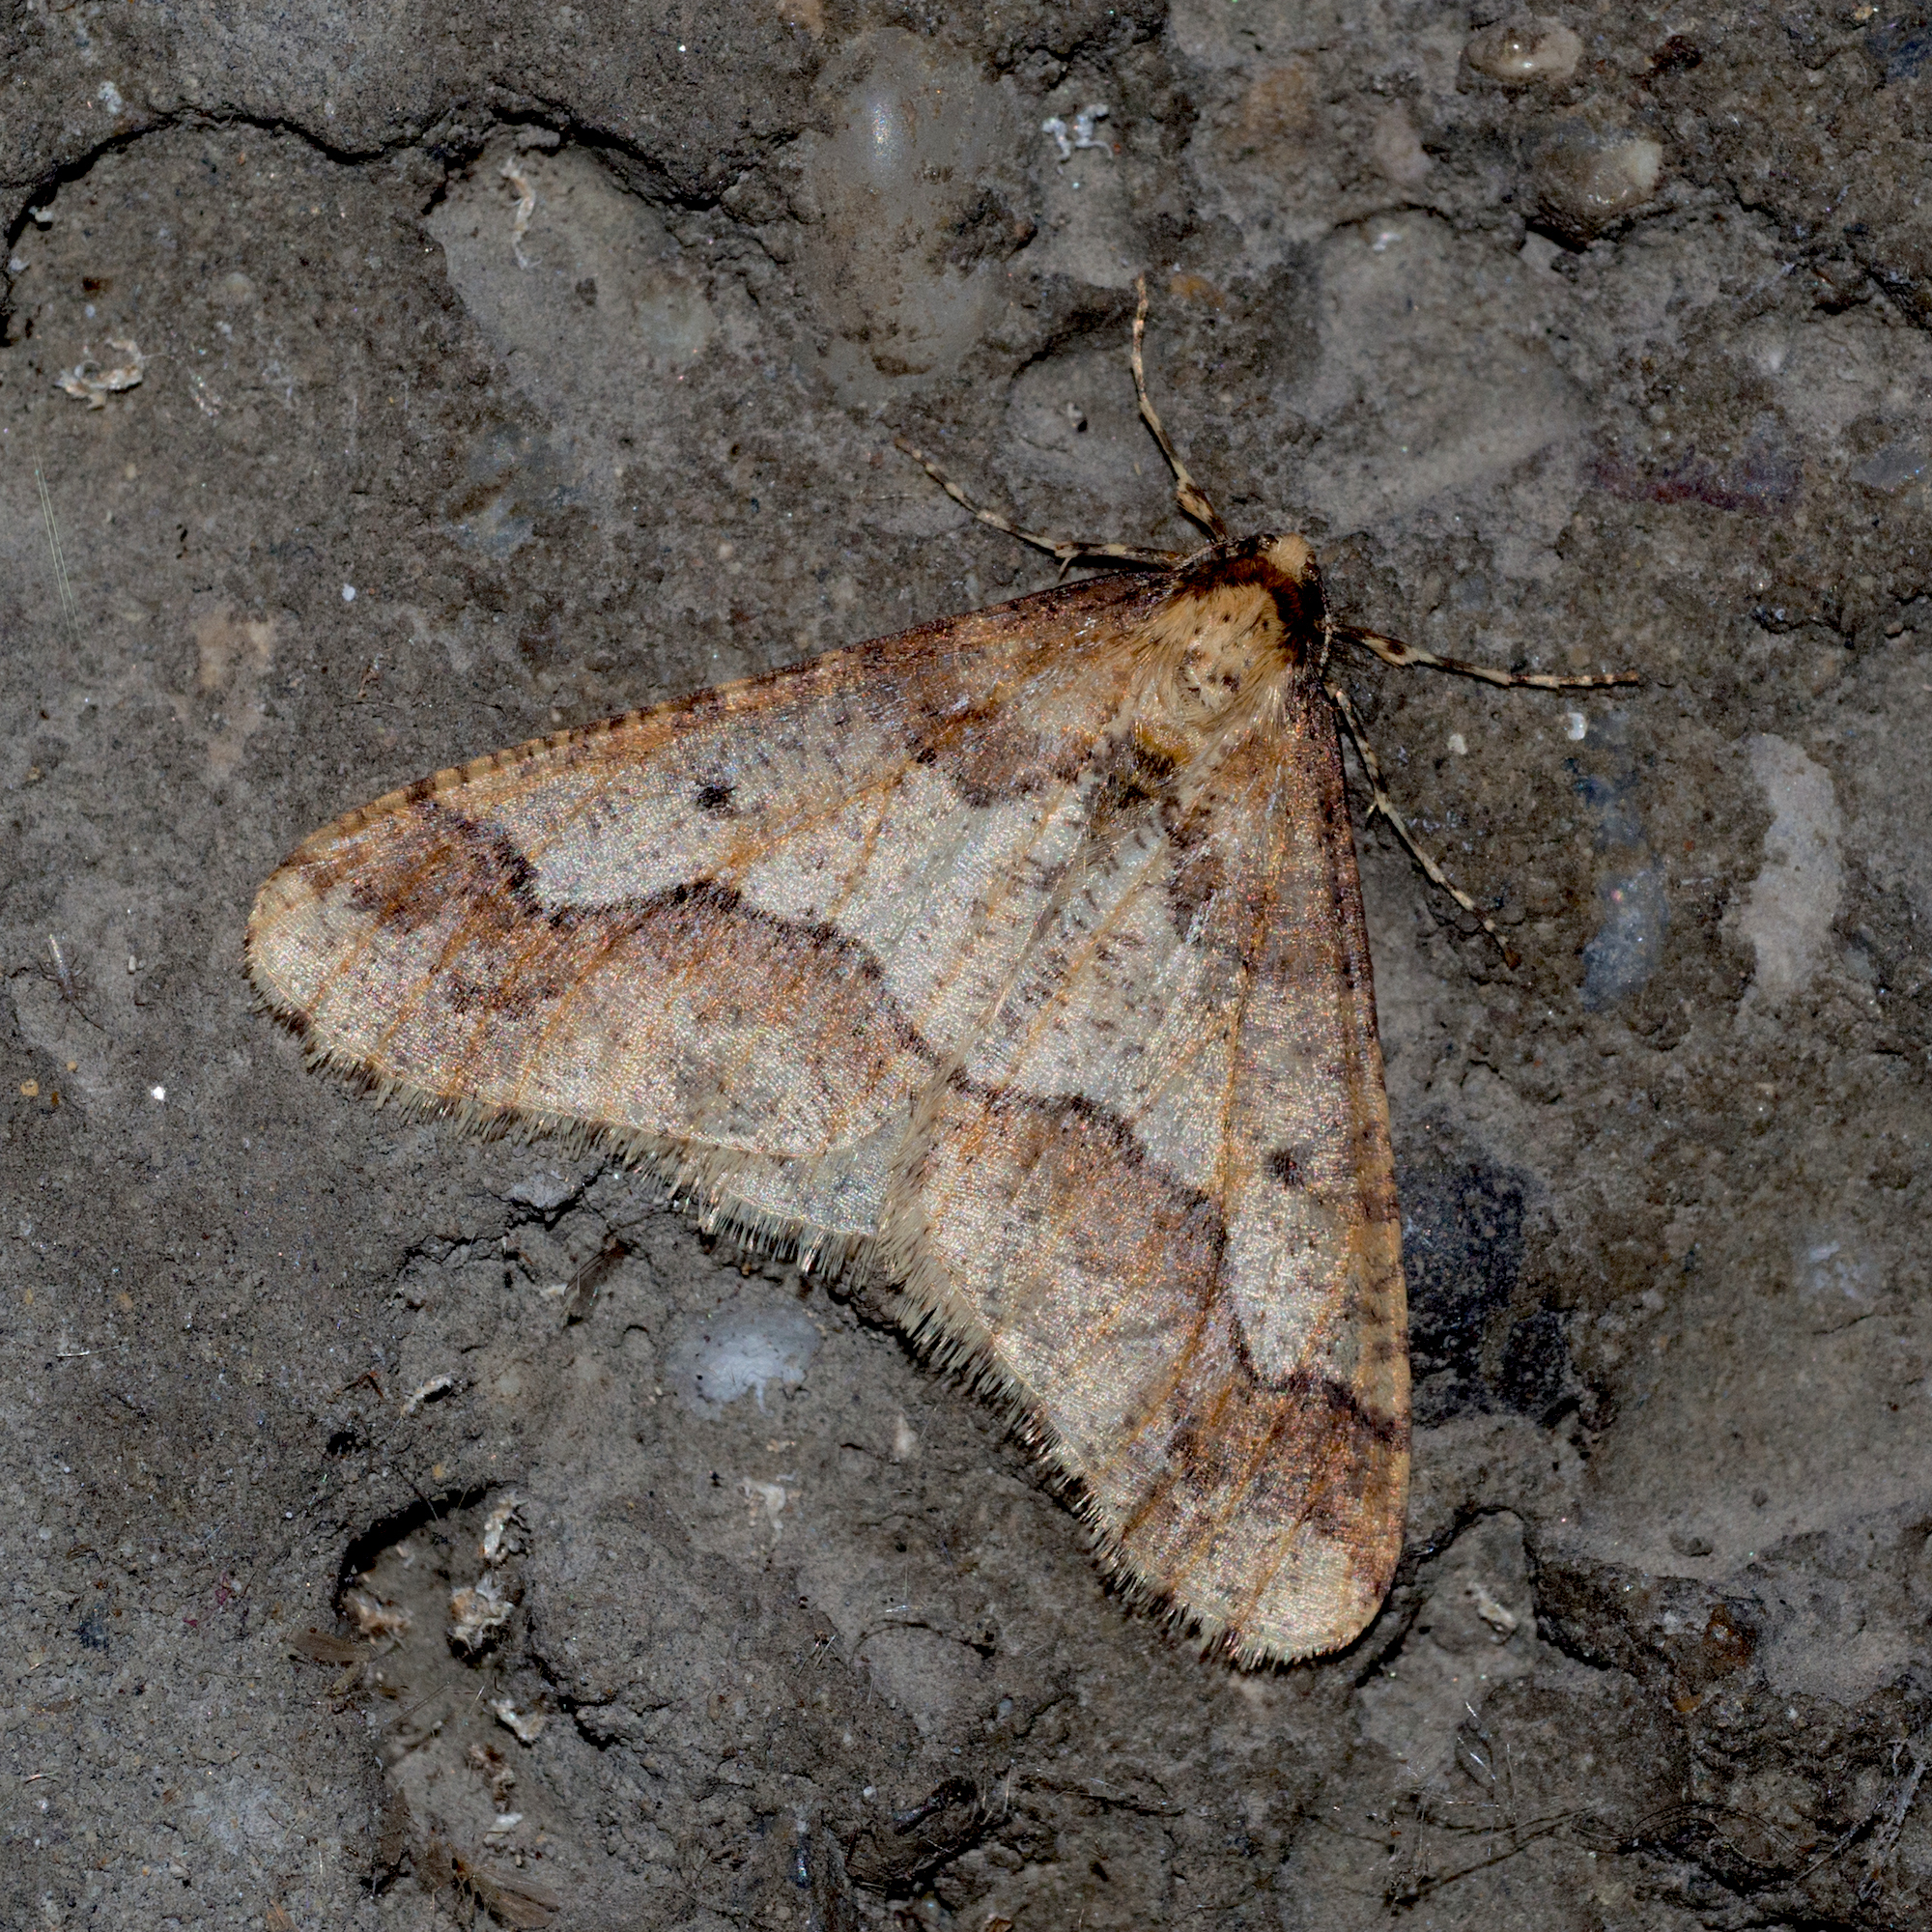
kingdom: Animalia
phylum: Arthropoda
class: Insecta
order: Lepidoptera
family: Geometridae
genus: Erannis
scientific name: Erannis defoliaria
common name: Mottled umber
